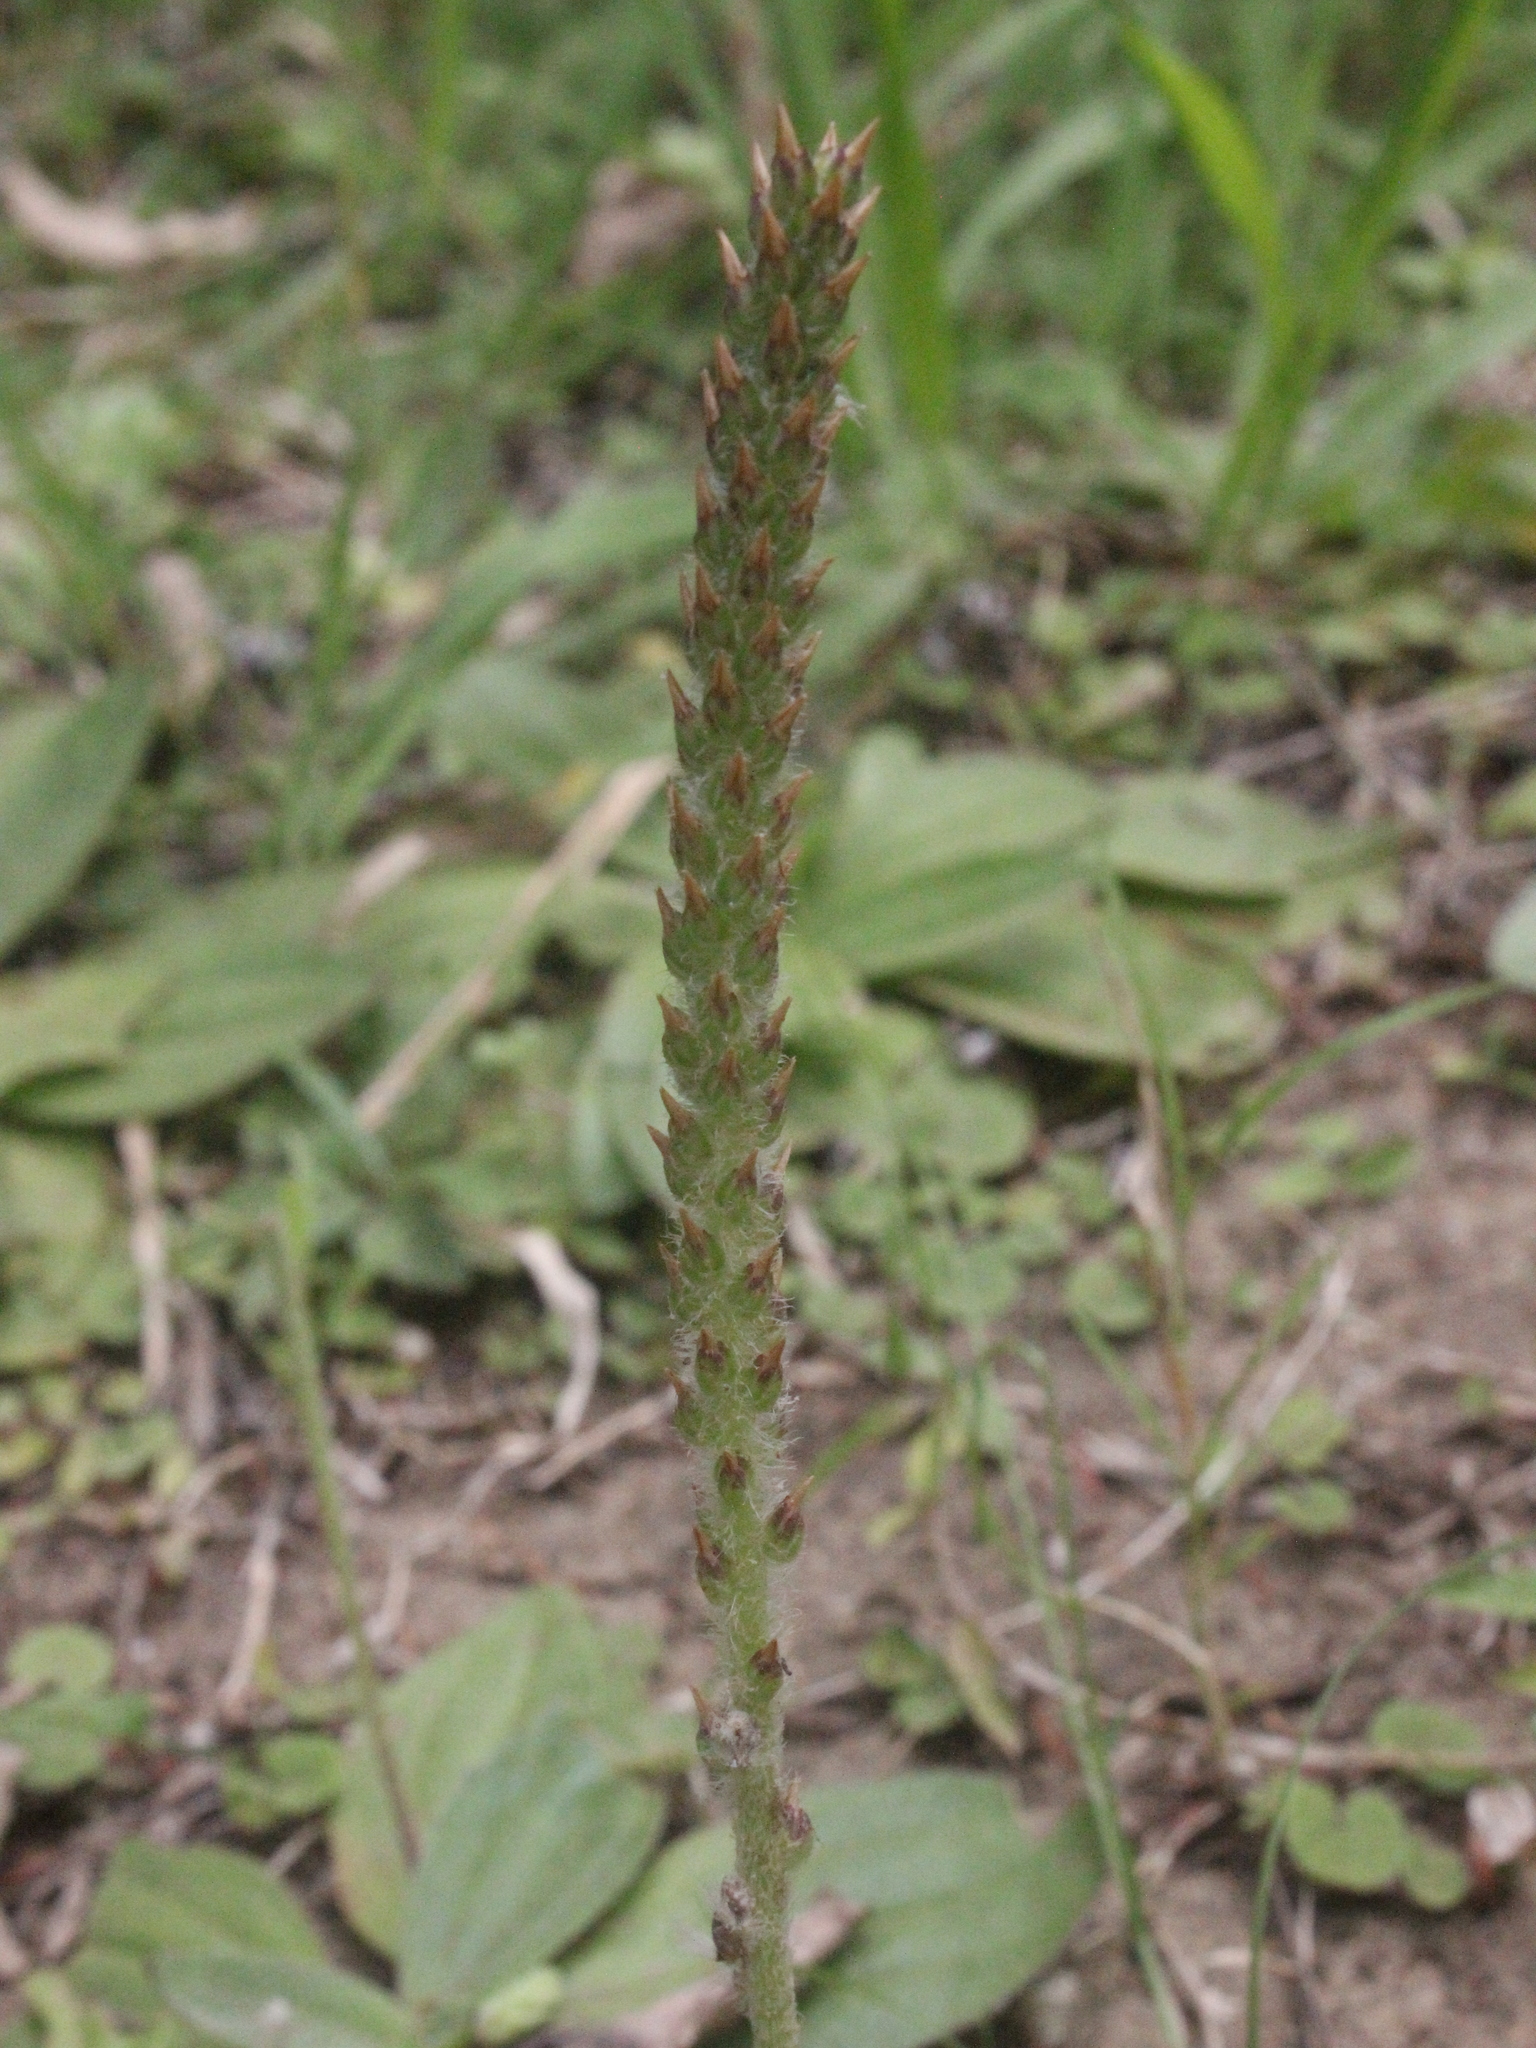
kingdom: Plantae
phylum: Tracheophyta
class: Magnoliopsida
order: Lamiales
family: Plantaginaceae
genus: Plantago
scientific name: Plantago australis
